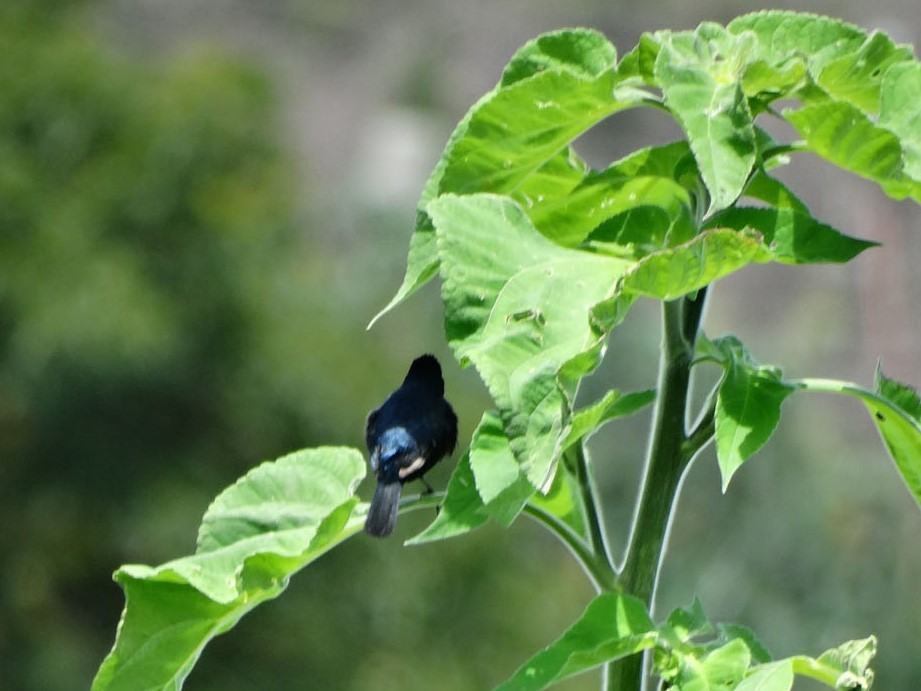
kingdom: Animalia
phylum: Chordata
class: Aves
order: Passeriformes
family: Thraupidae
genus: Volatinia
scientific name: Volatinia jacarina
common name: Blue-black grassquit
